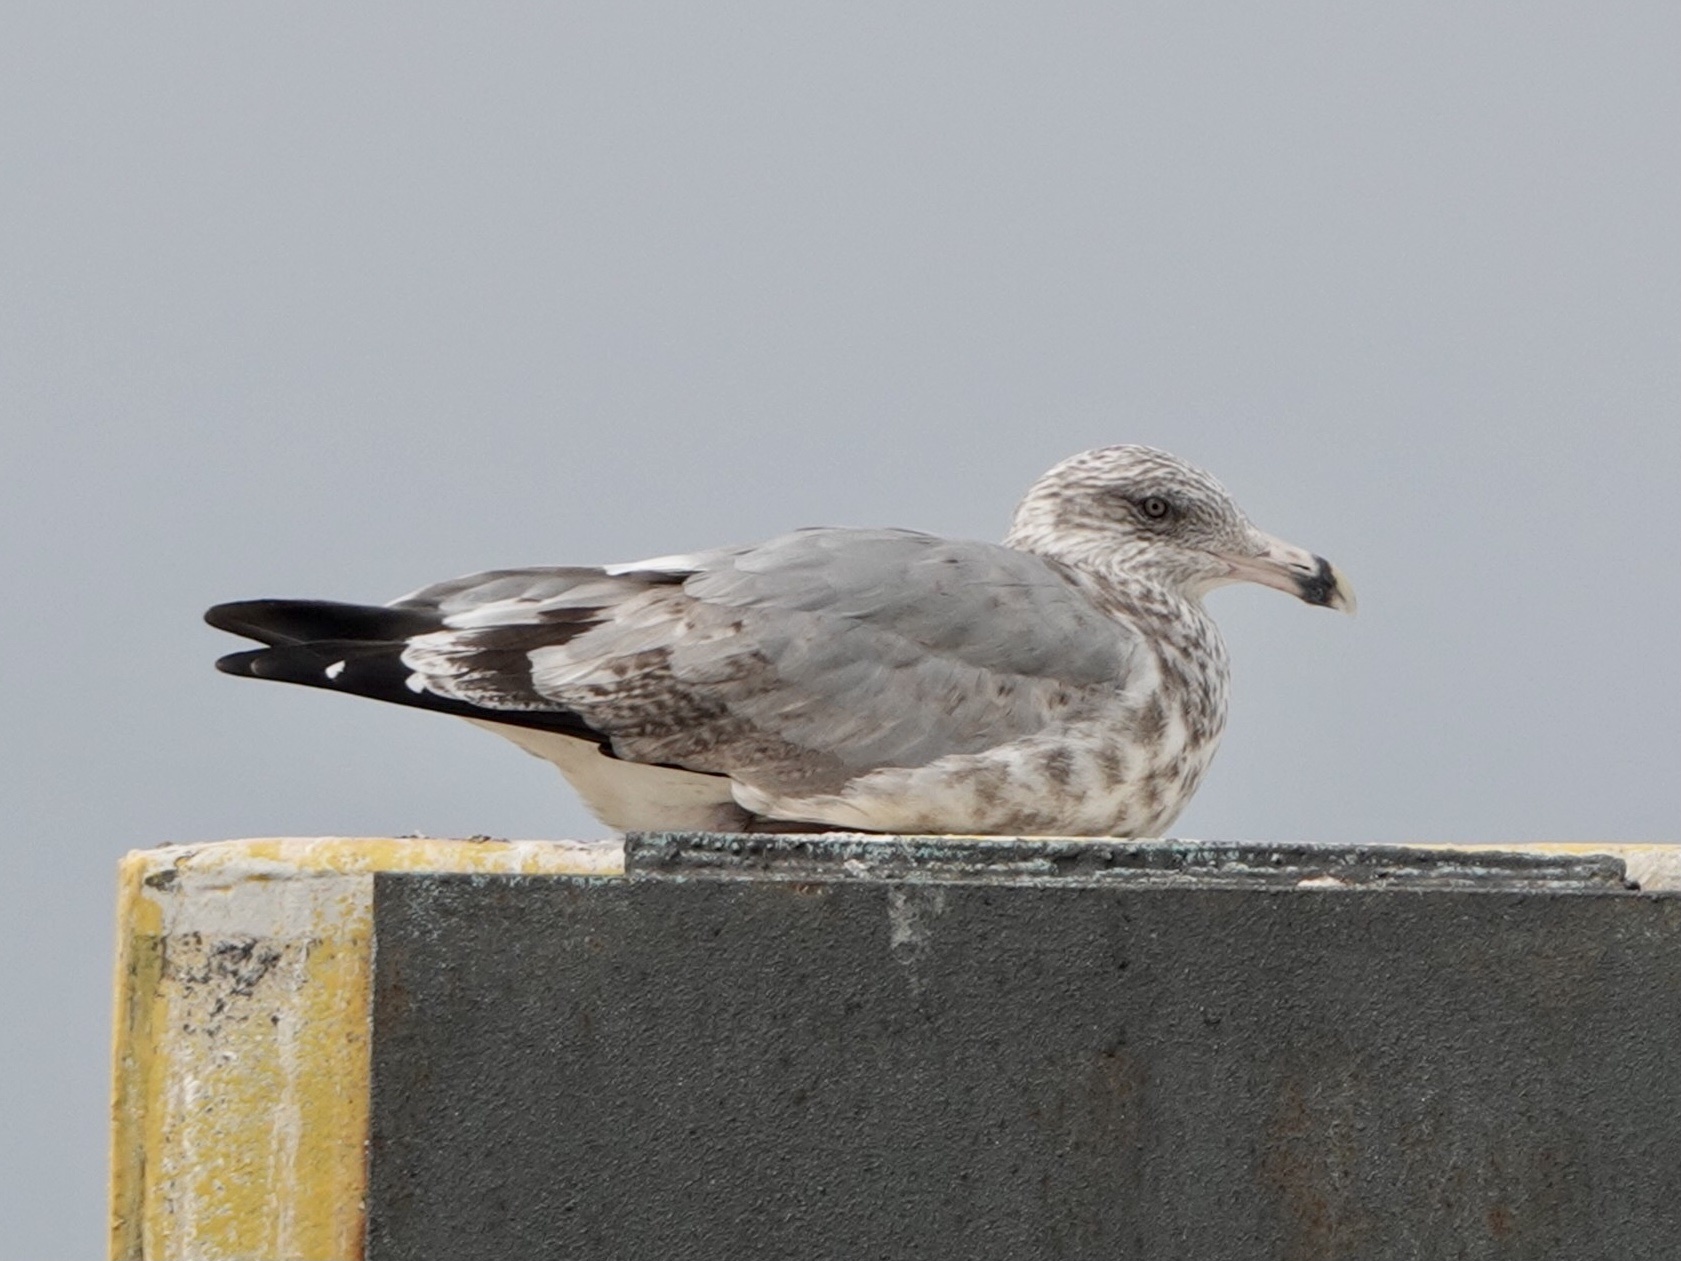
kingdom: Animalia
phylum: Chordata
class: Aves
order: Charadriiformes
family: Laridae
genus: Larus
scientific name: Larus argentatus
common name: Herring gull
